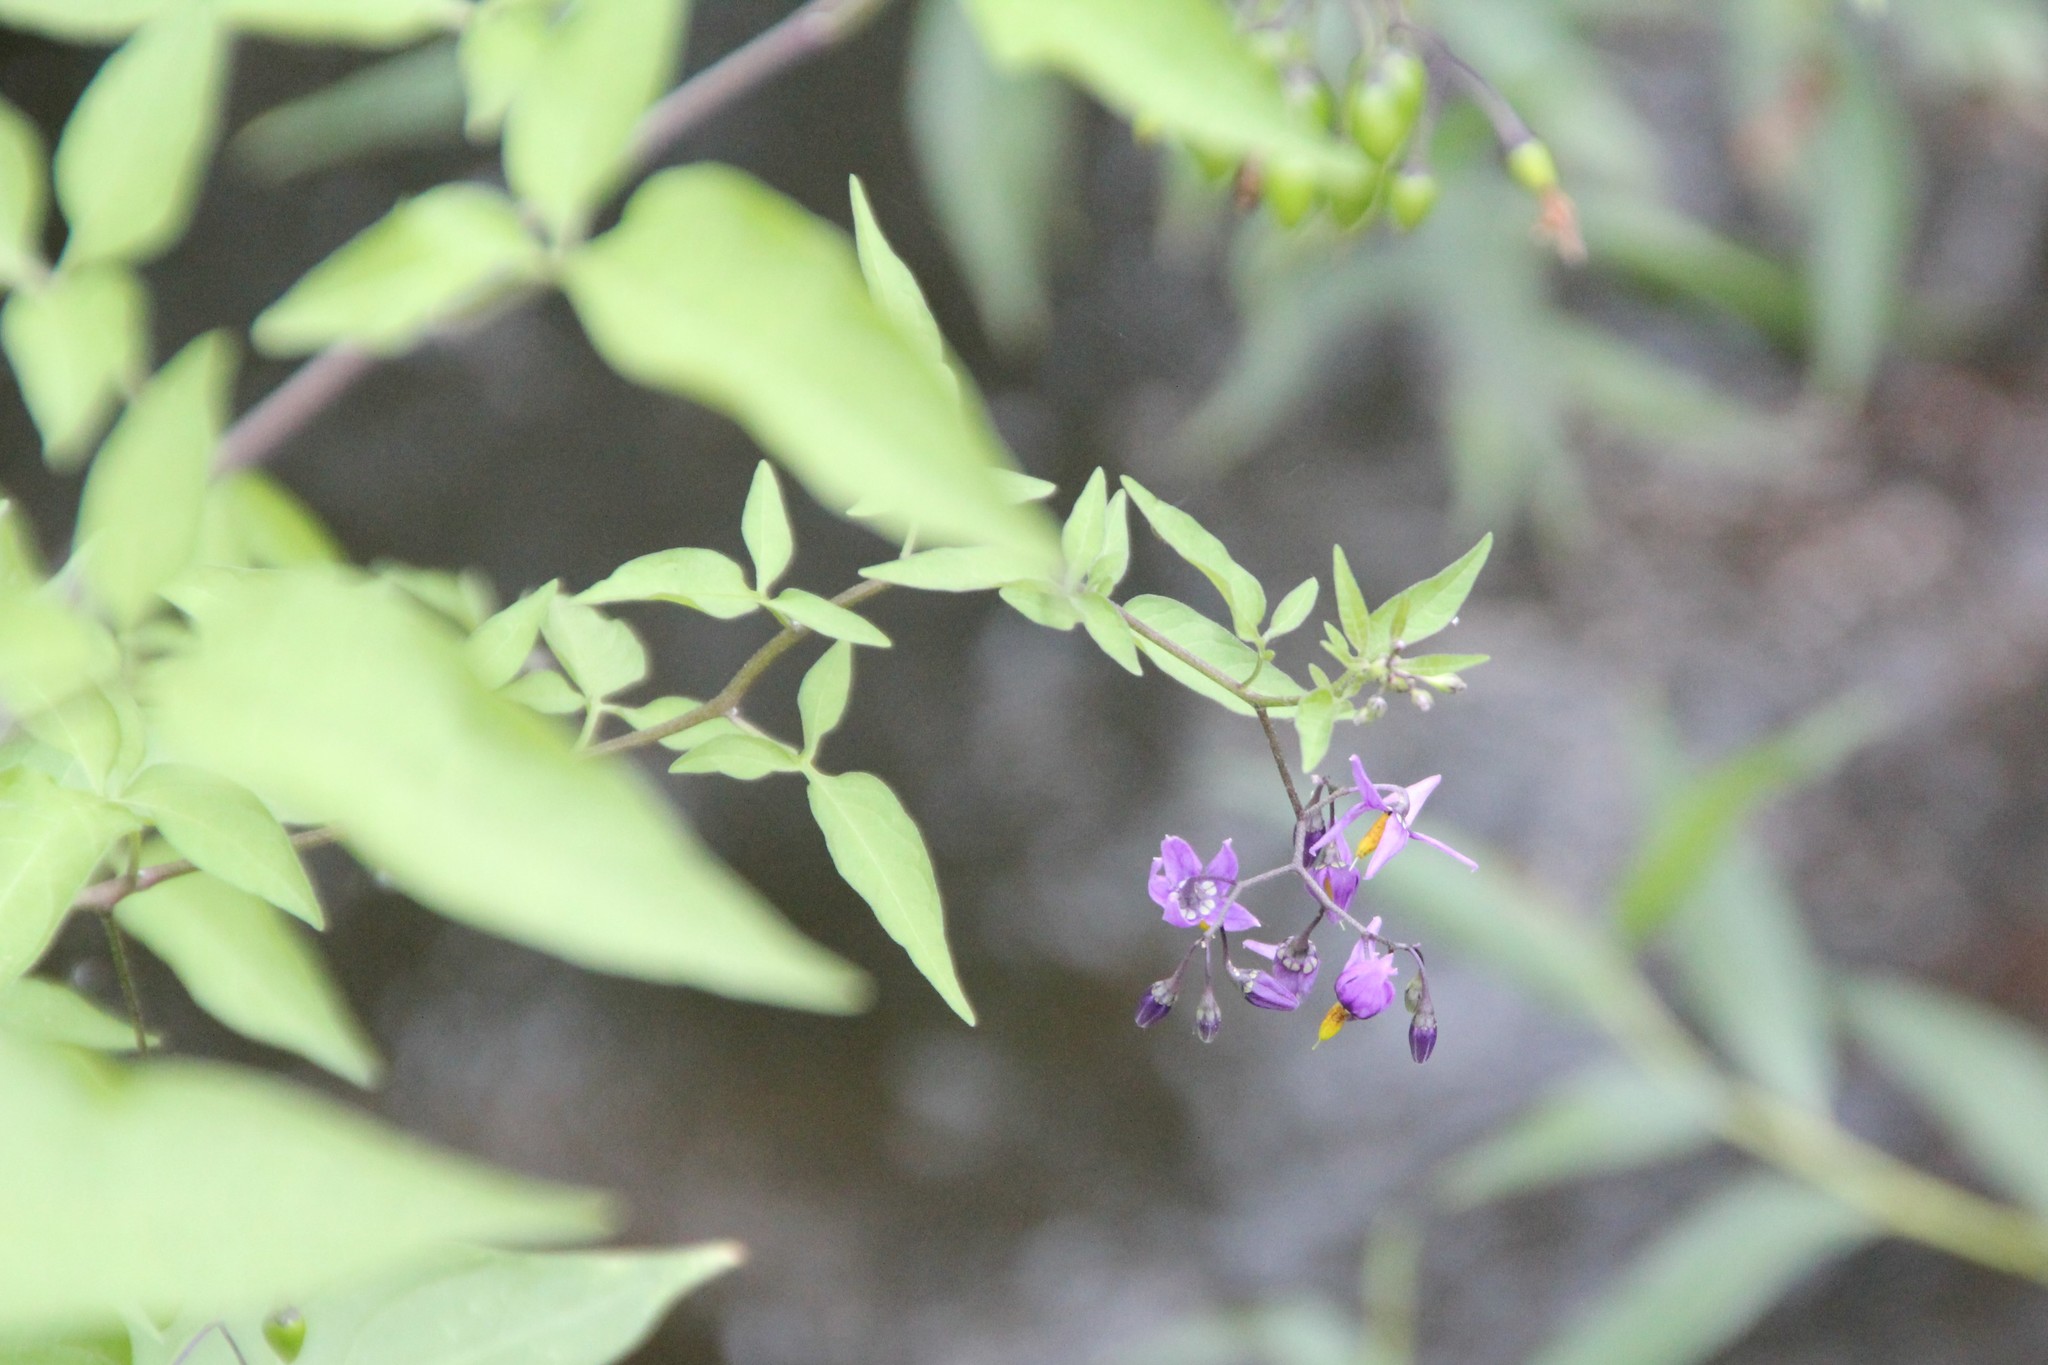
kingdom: Plantae
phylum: Tracheophyta
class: Magnoliopsida
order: Solanales
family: Solanaceae
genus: Solanum
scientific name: Solanum dulcamara
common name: Climbing nightshade
